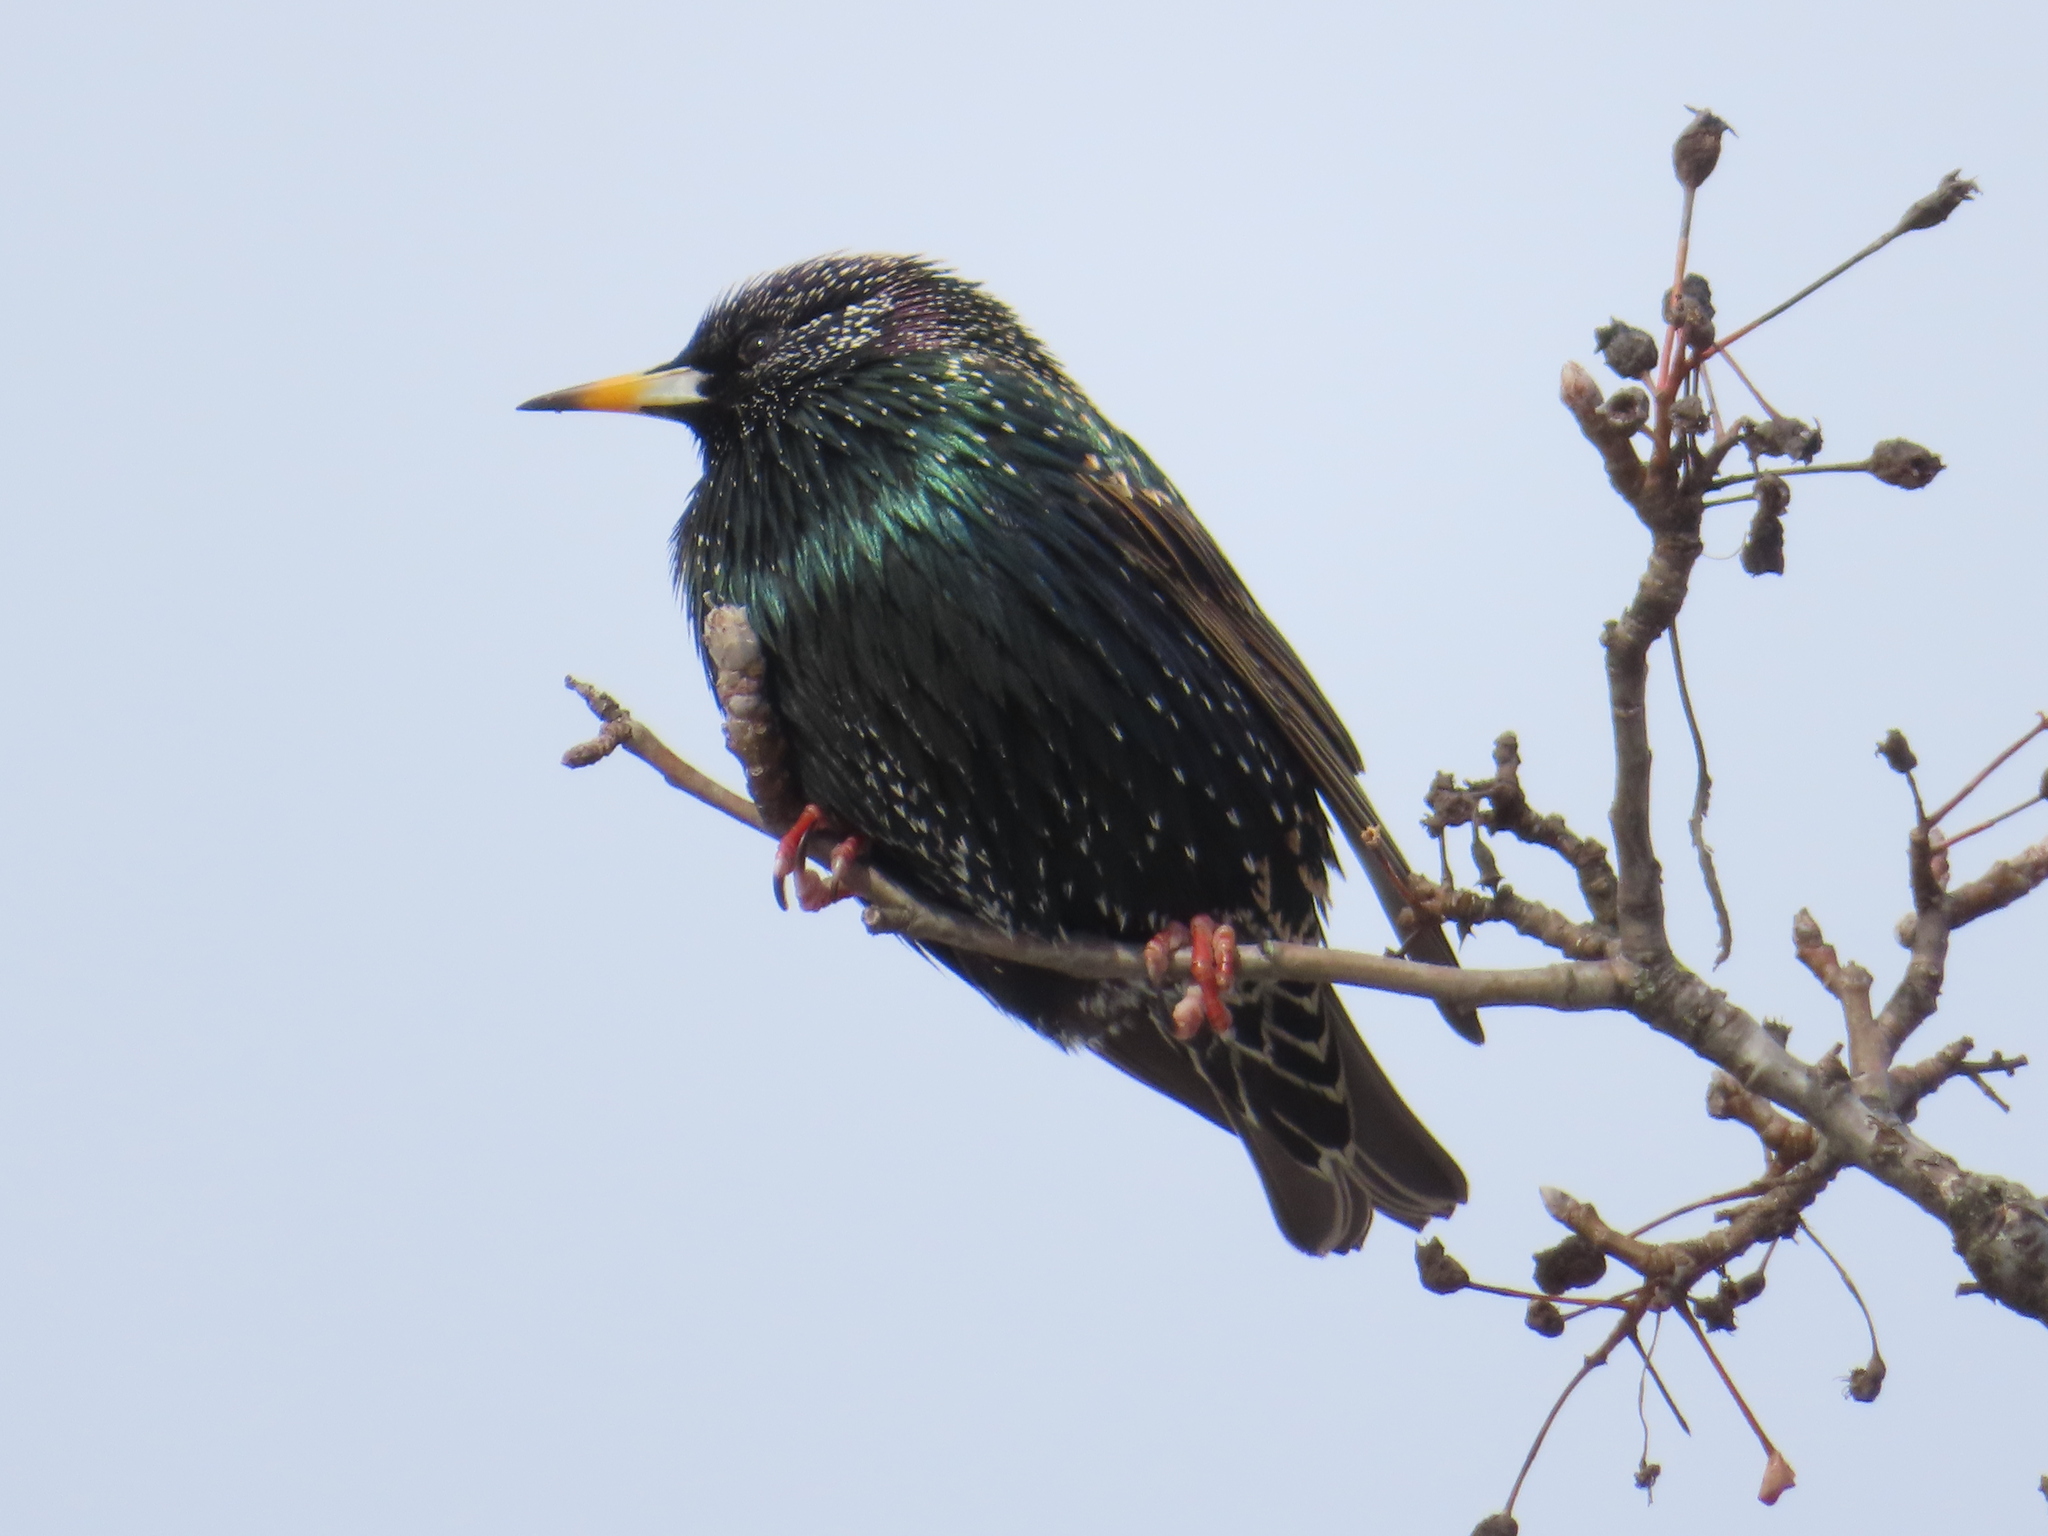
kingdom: Animalia
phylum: Chordata
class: Aves
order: Passeriformes
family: Sturnidae
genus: Sturnus
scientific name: Sturnus vulgaris
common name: Common starling
